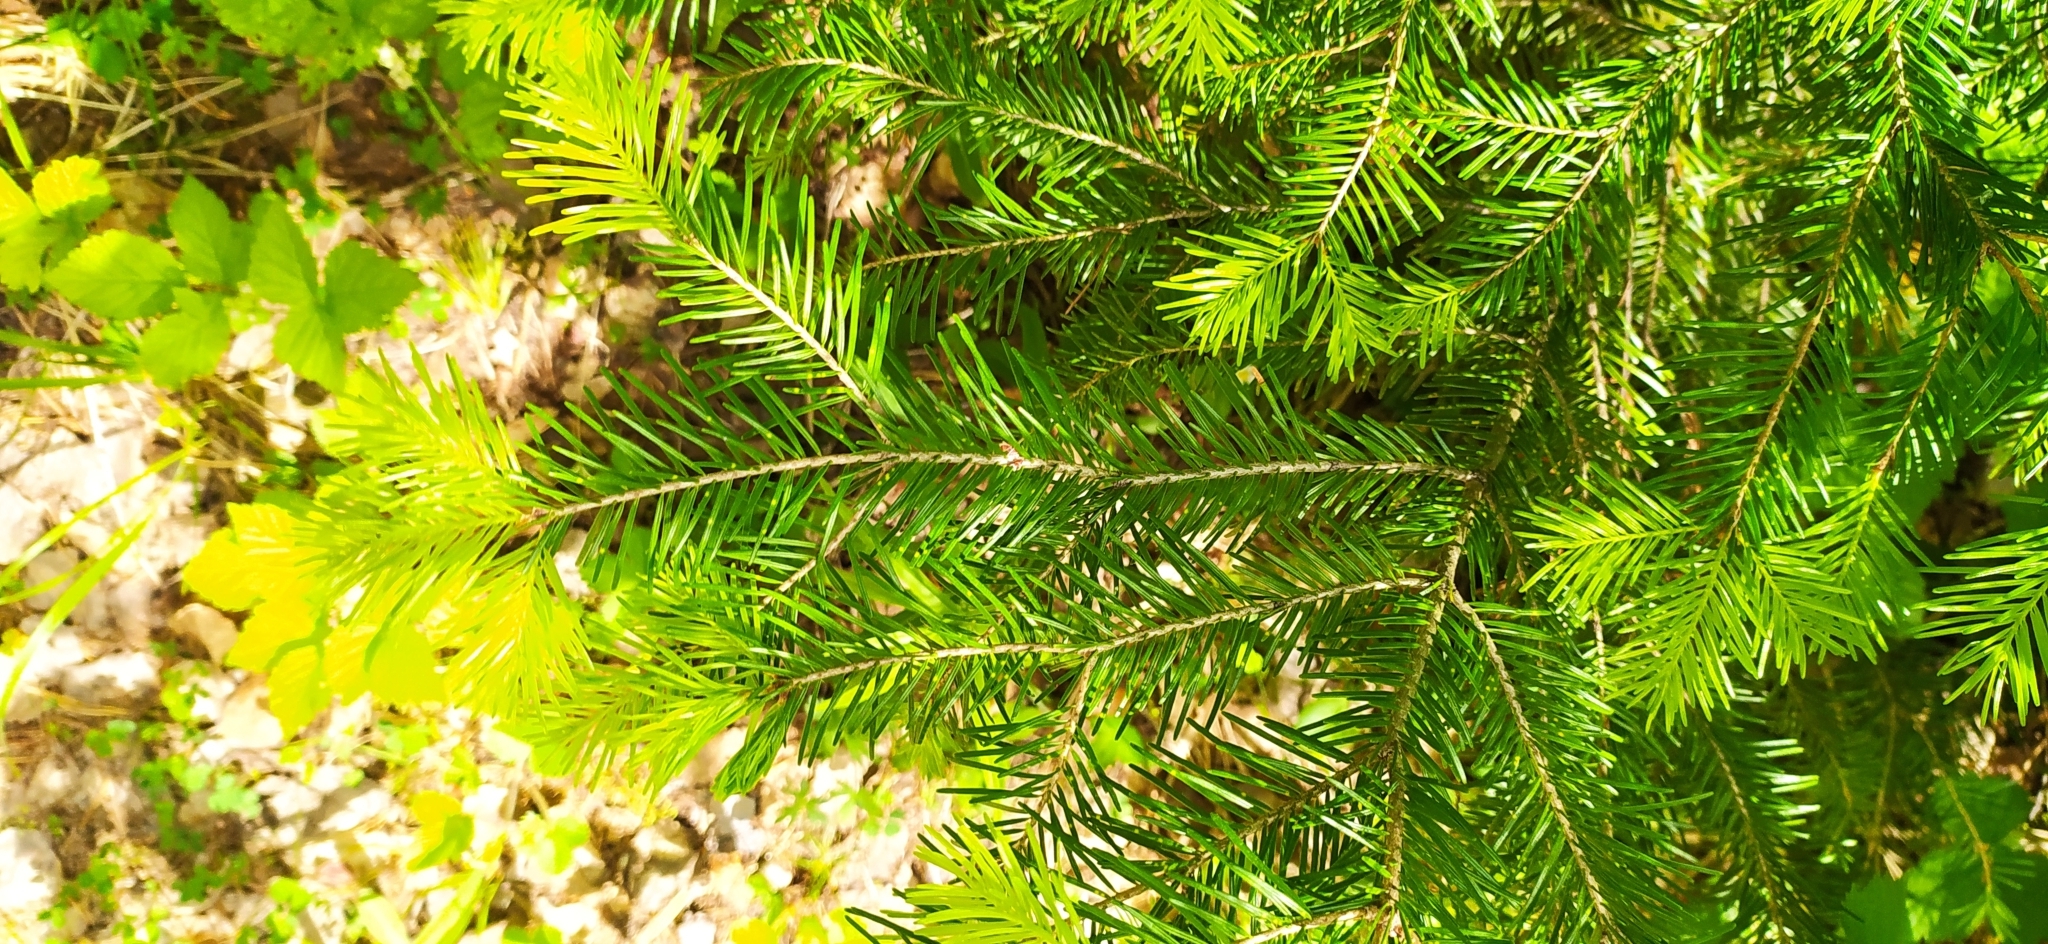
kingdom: Plantae
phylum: Tracheophyta
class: Pinopsida
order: Pinales
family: Pinaceae
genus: Abies
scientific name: Abies sibirica
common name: Siberian fir
